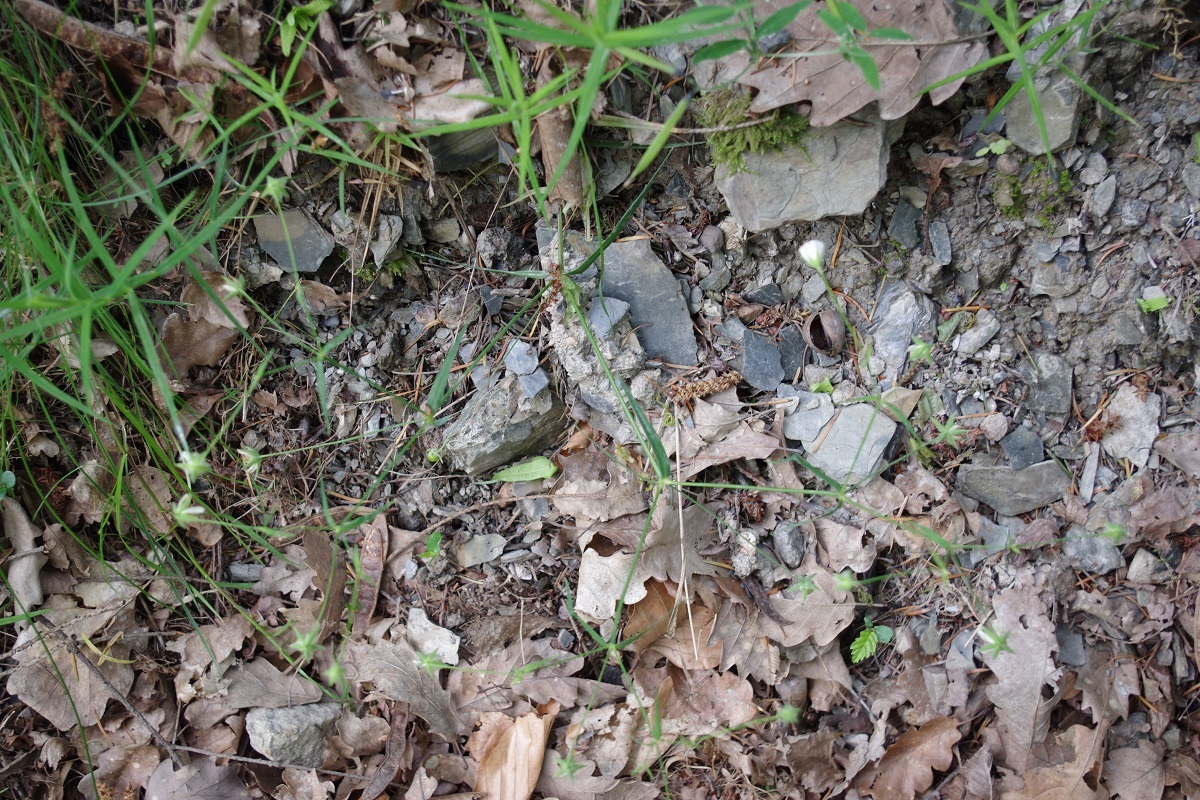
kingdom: Plantae
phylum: Tracheophyta
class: Magnoliopsida
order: Caryophyllales
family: Caryophyllaceae
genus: Rabelera
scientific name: Rabelera holostea
